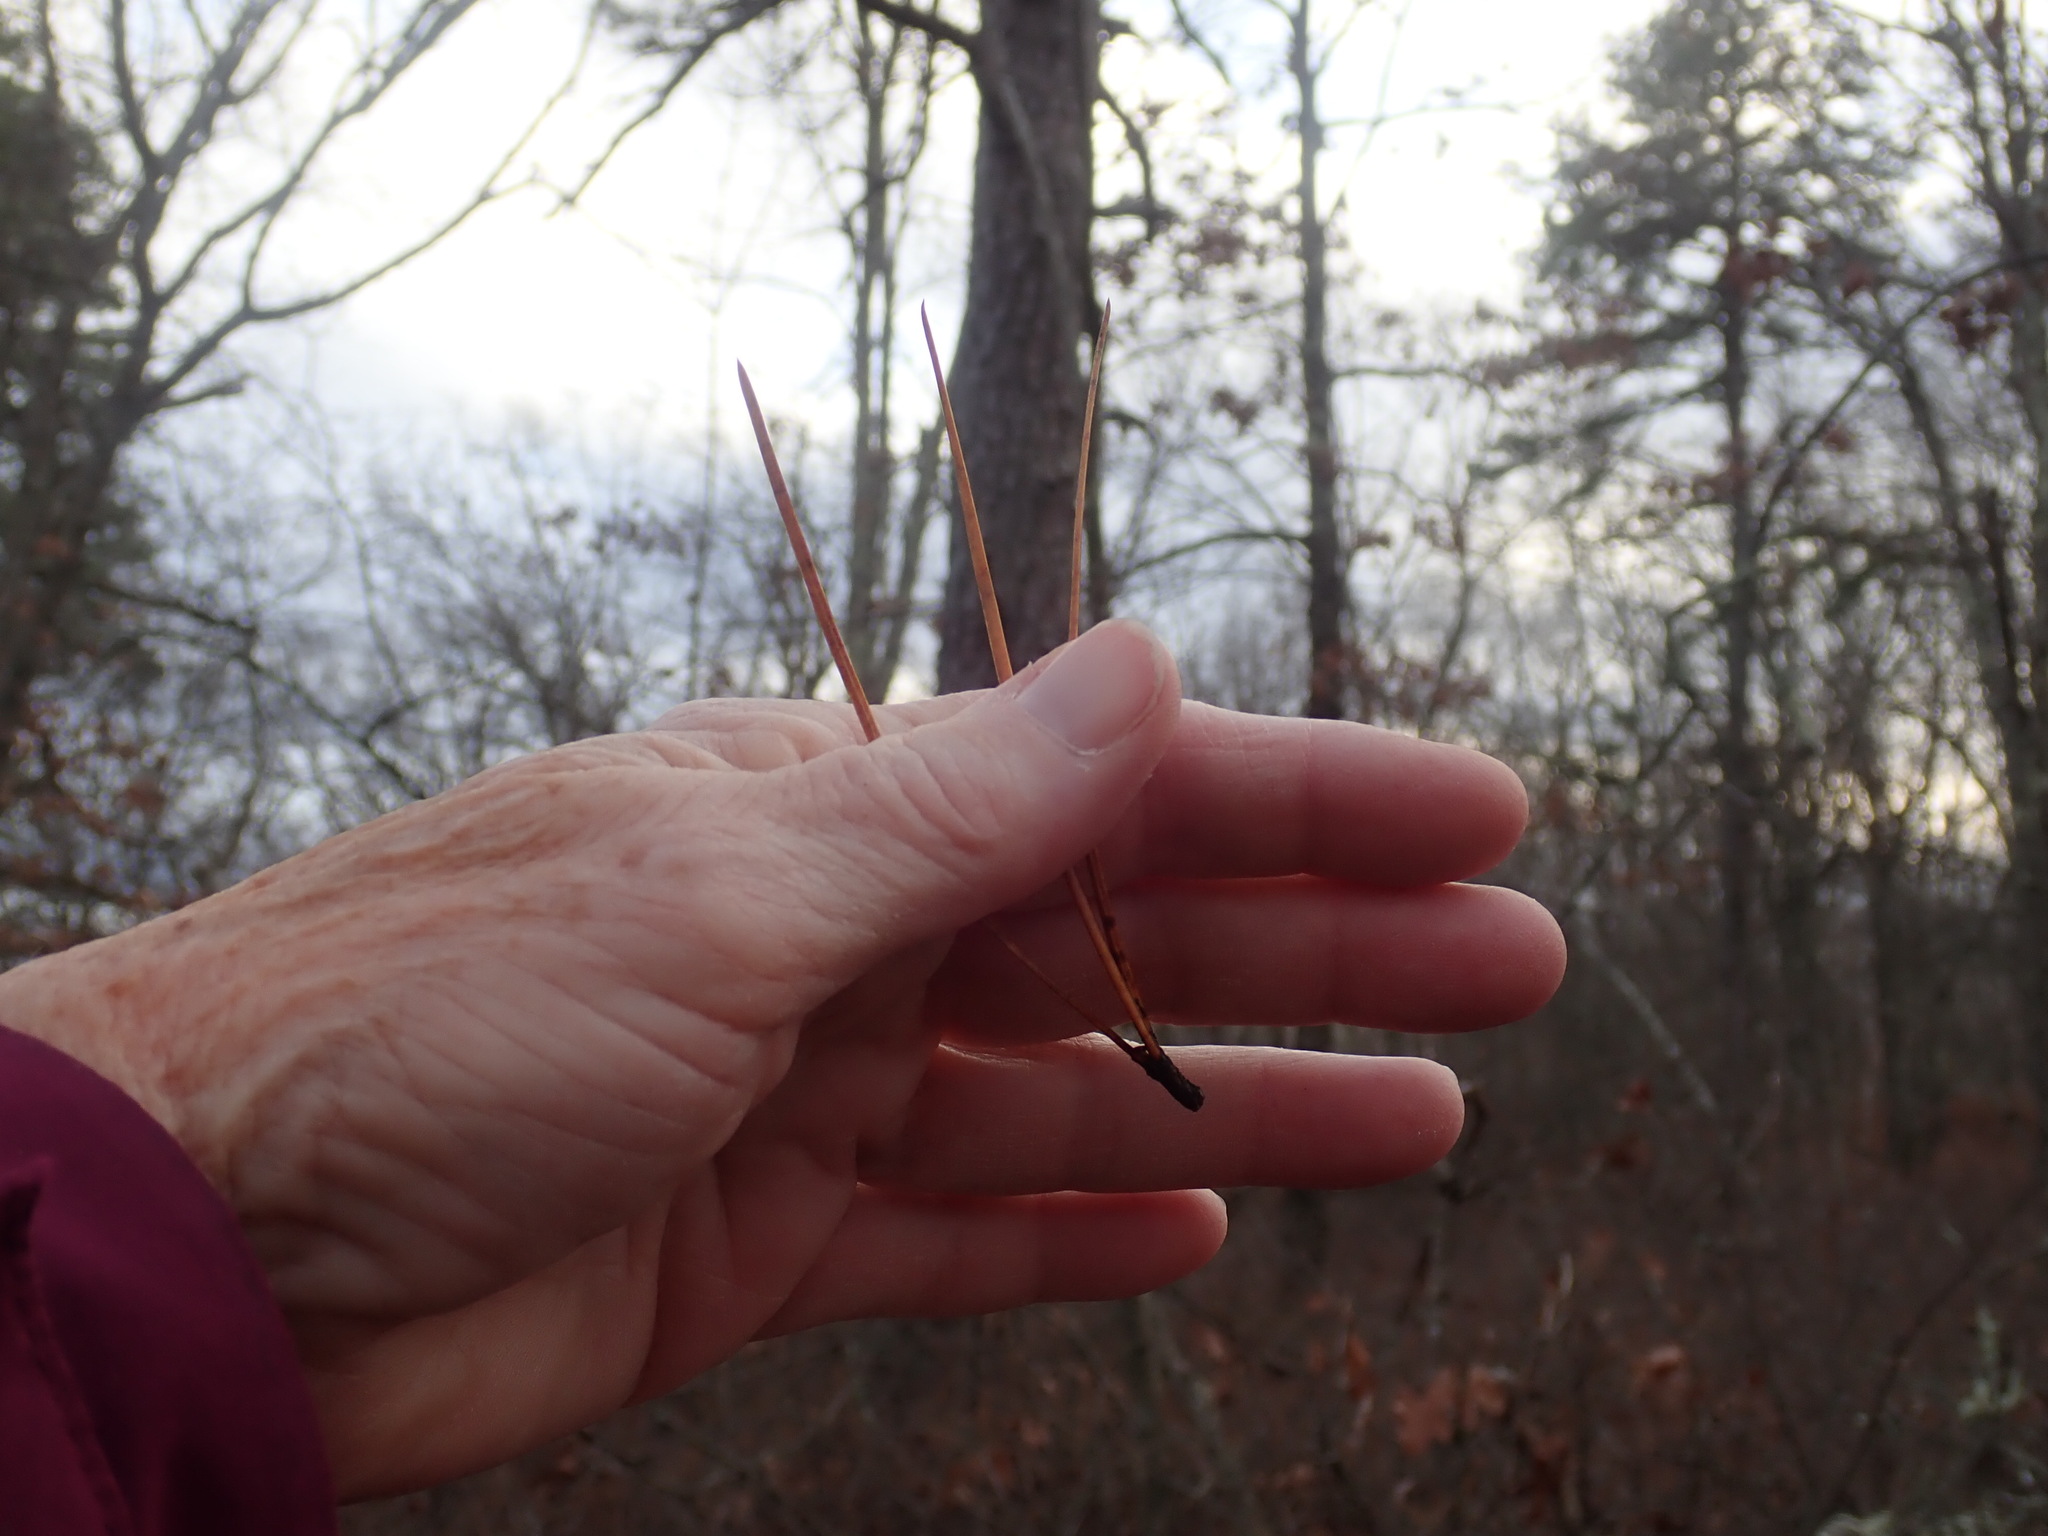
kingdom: Plantae
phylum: Tracheophyta
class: Pinopsida
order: Pinales
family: Pinaceae
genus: Pinus
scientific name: Pinus rigida
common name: Pitch pine
